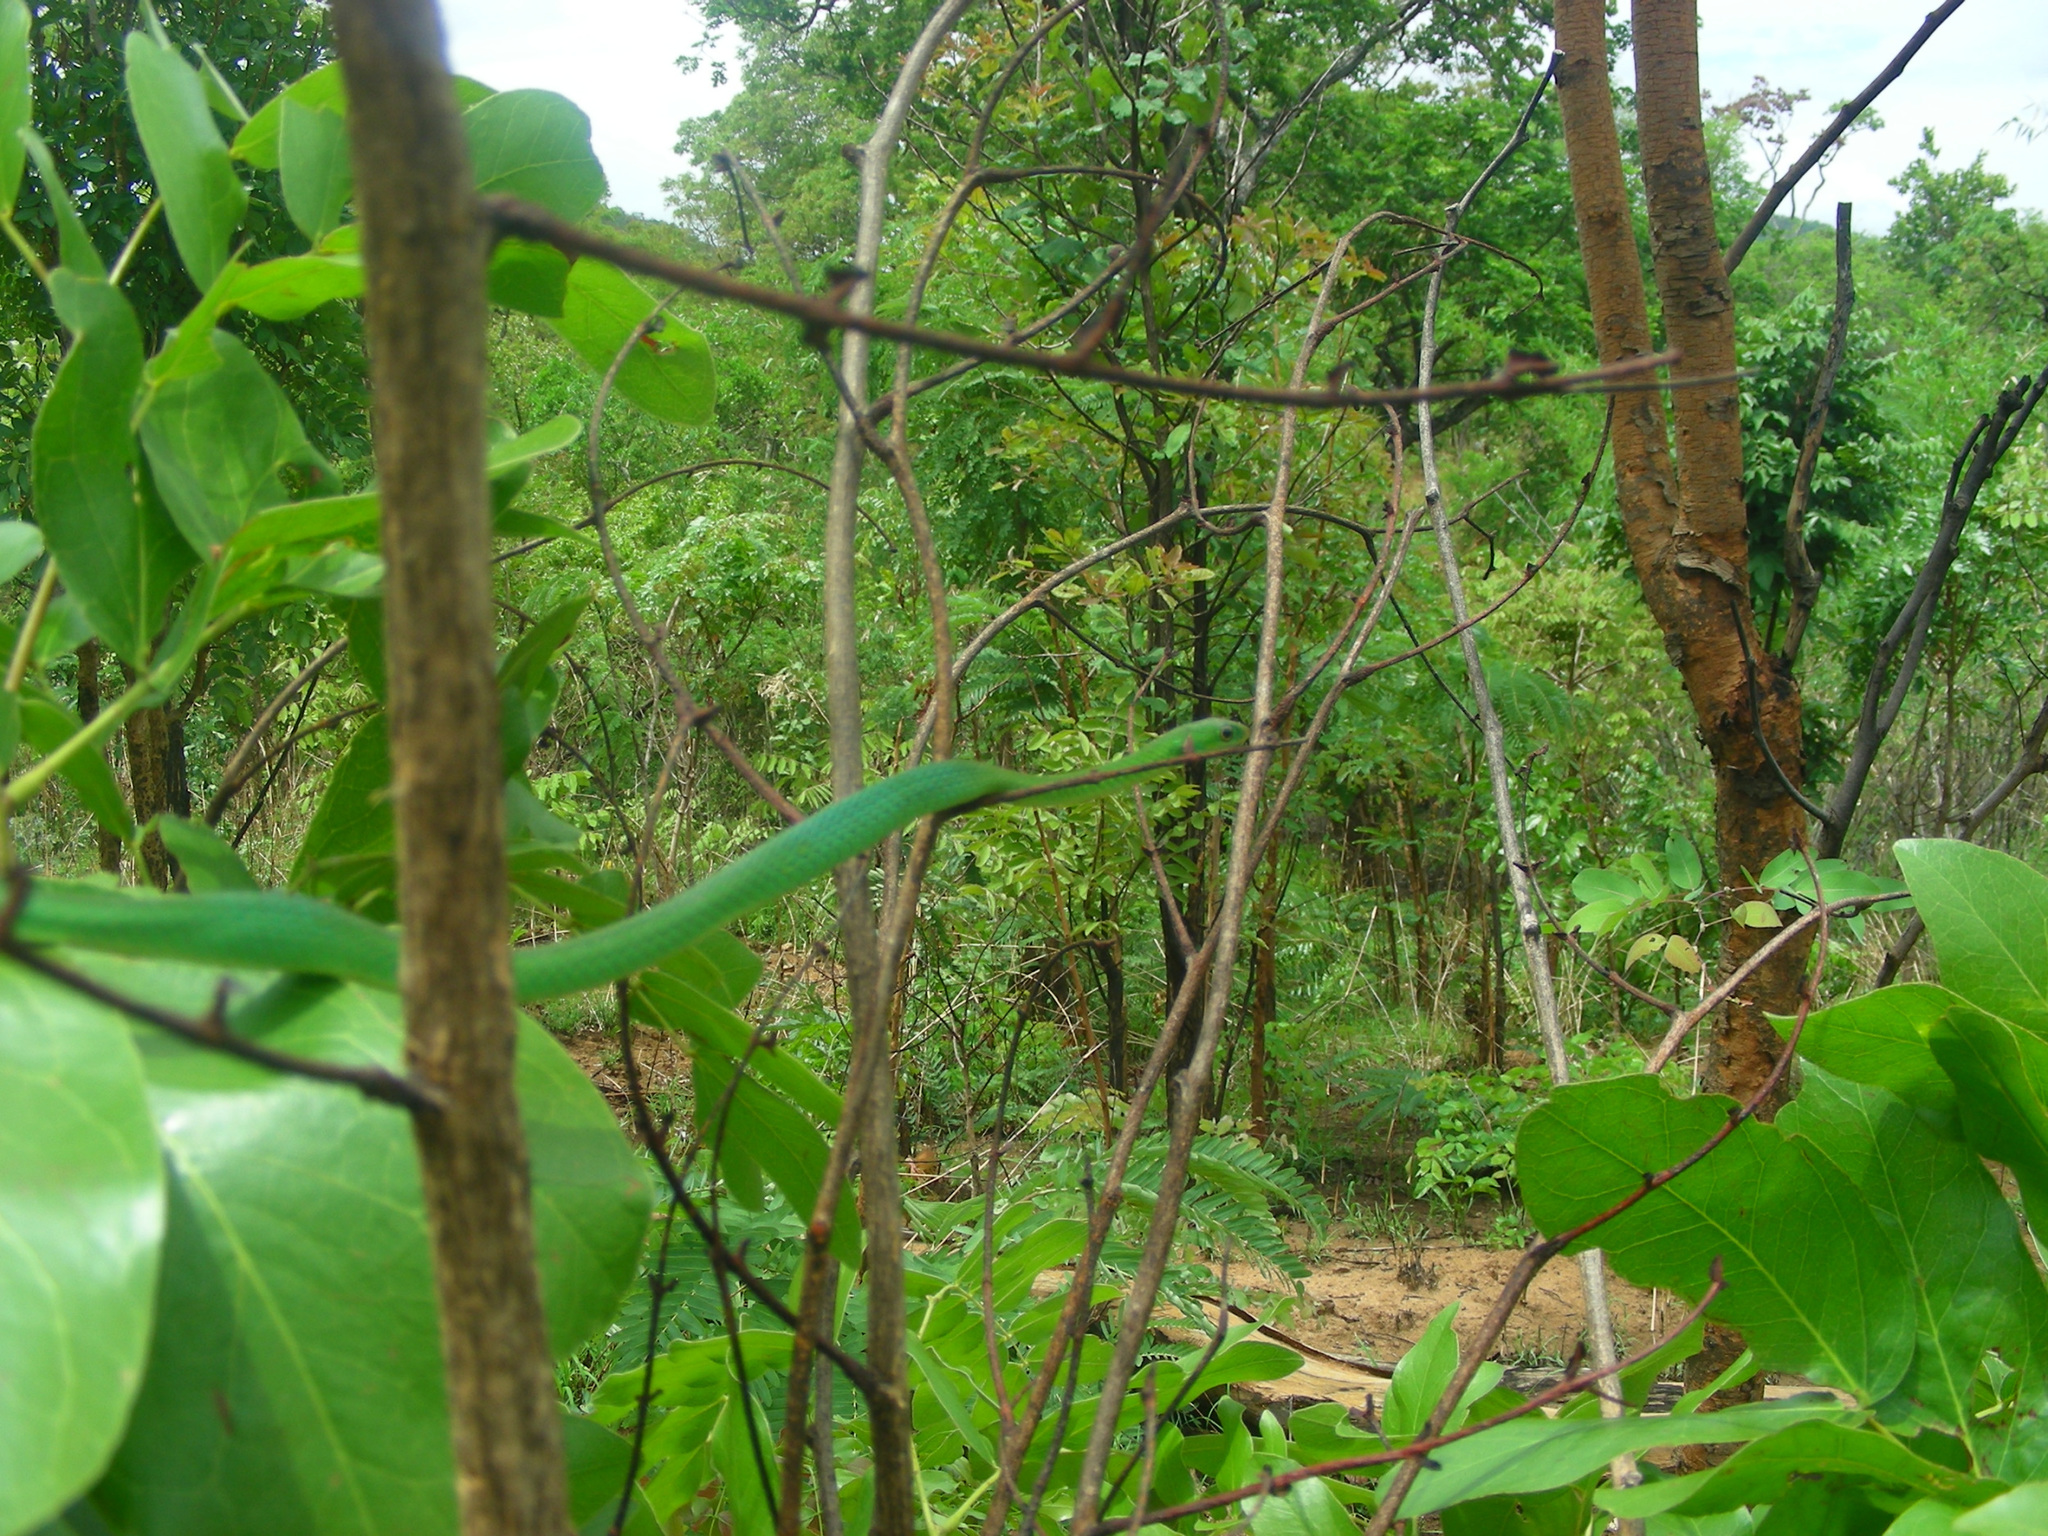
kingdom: Animalia
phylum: Chordata
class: Squamata
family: Colubridae
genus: Philothamnus
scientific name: Philothamnus hoplogaster
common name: Green water snake
